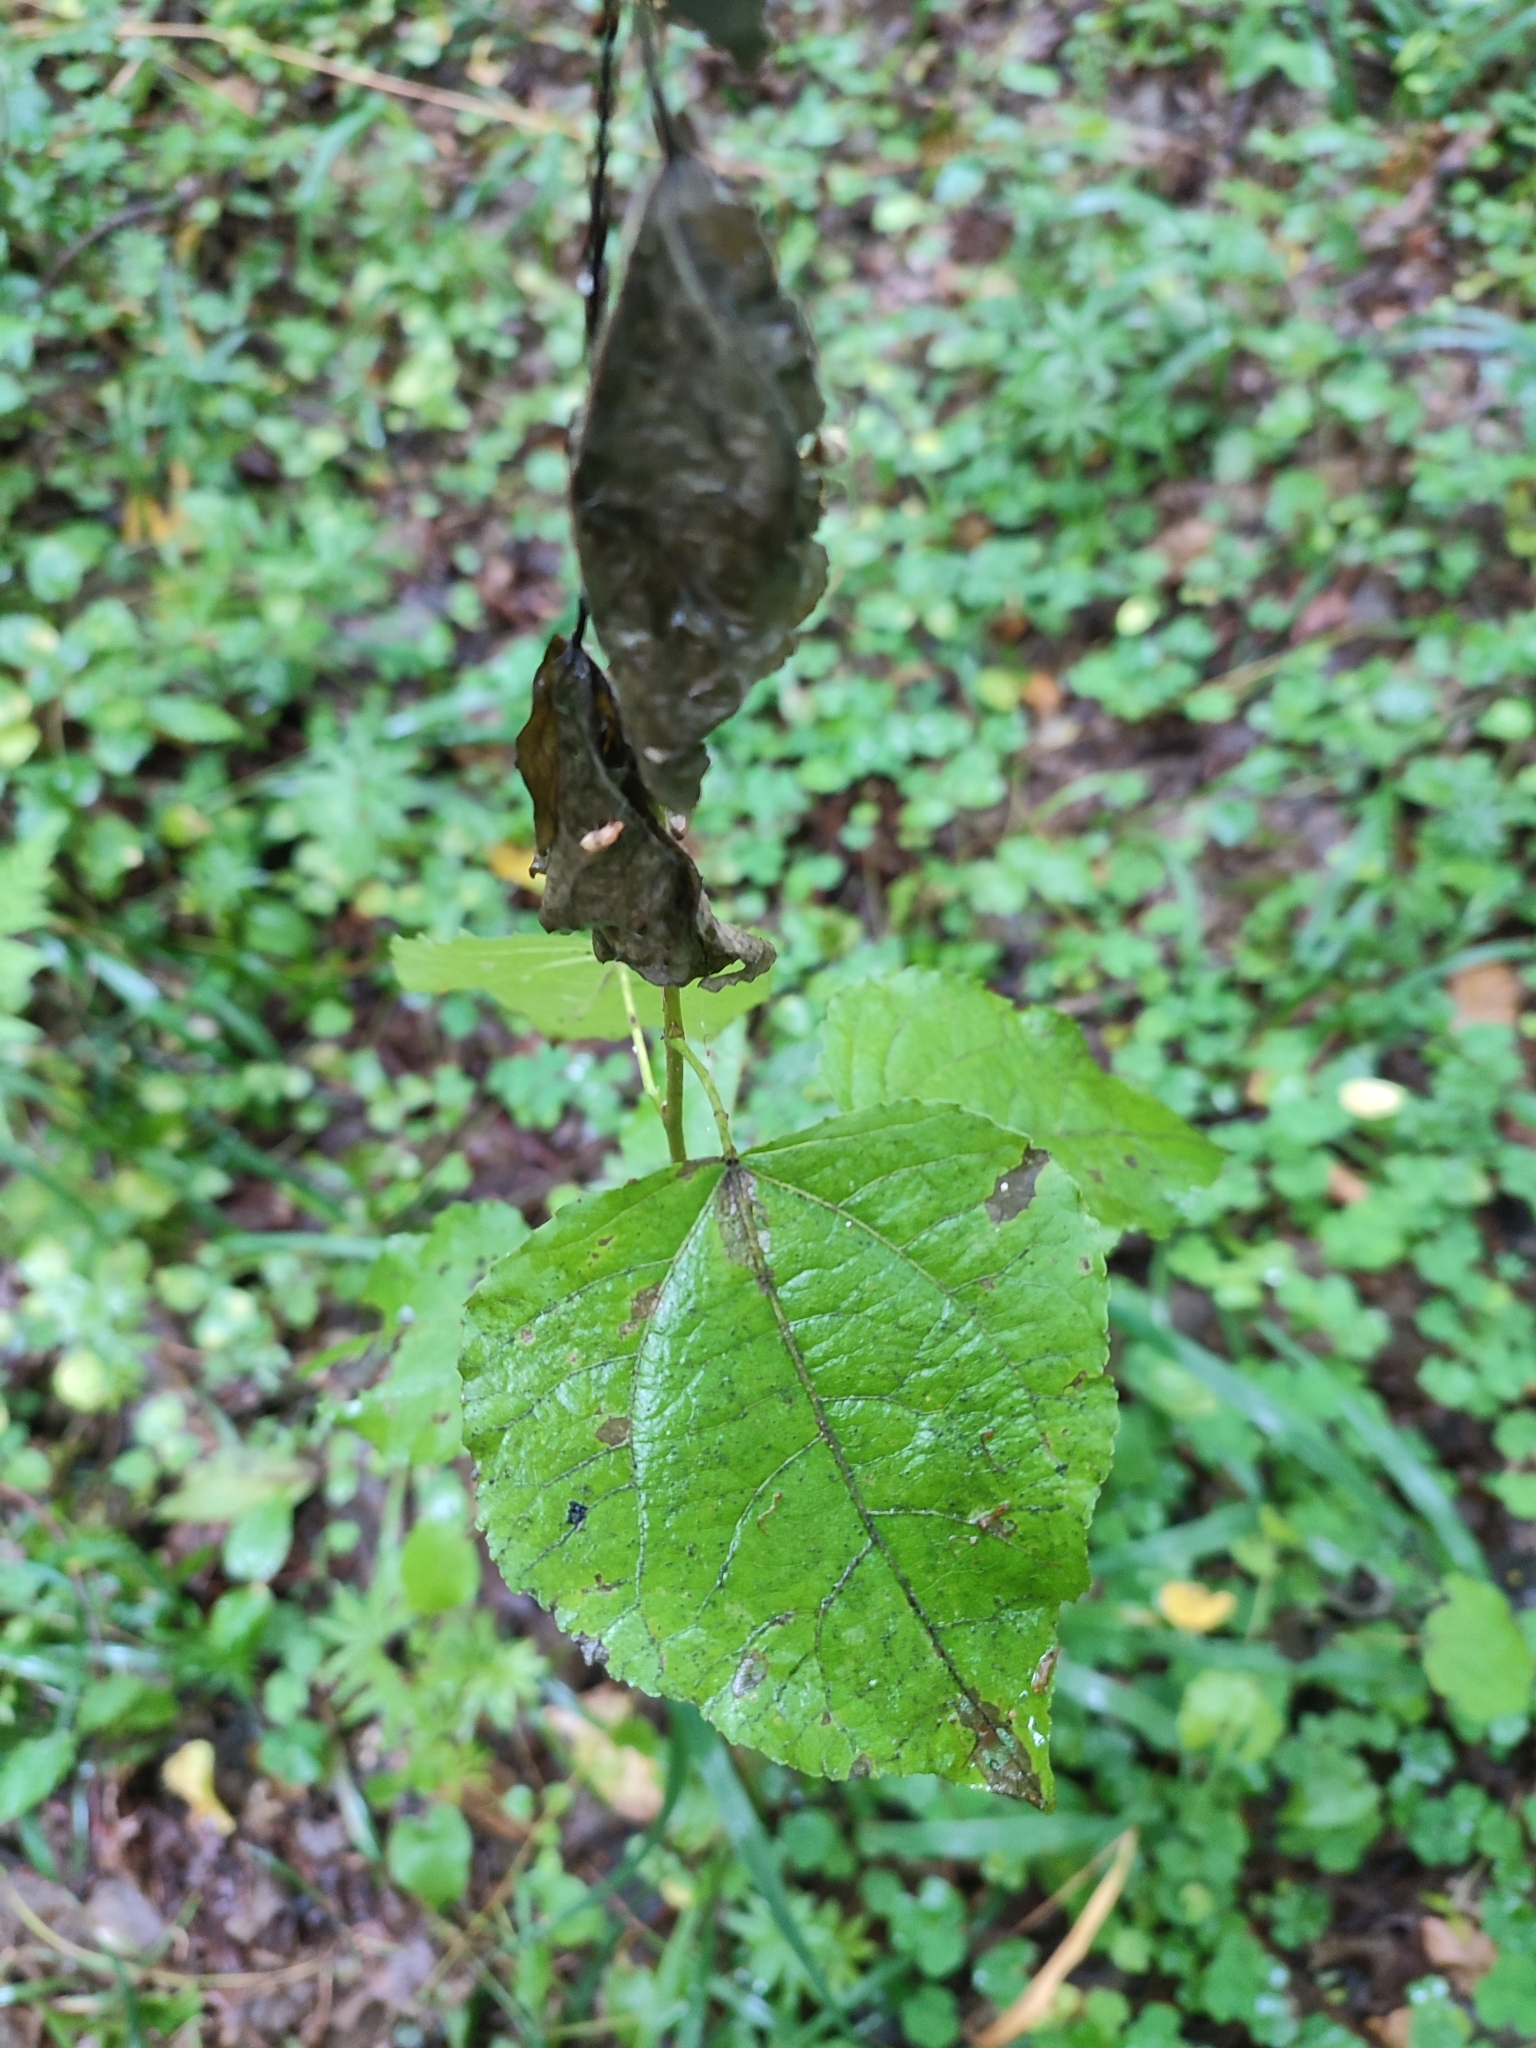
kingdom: Plantae
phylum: Tracheophyta
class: Magnoliopsida
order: Malpighiales
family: Salicaceae
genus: Populus
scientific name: Populus tremula
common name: European aspen
